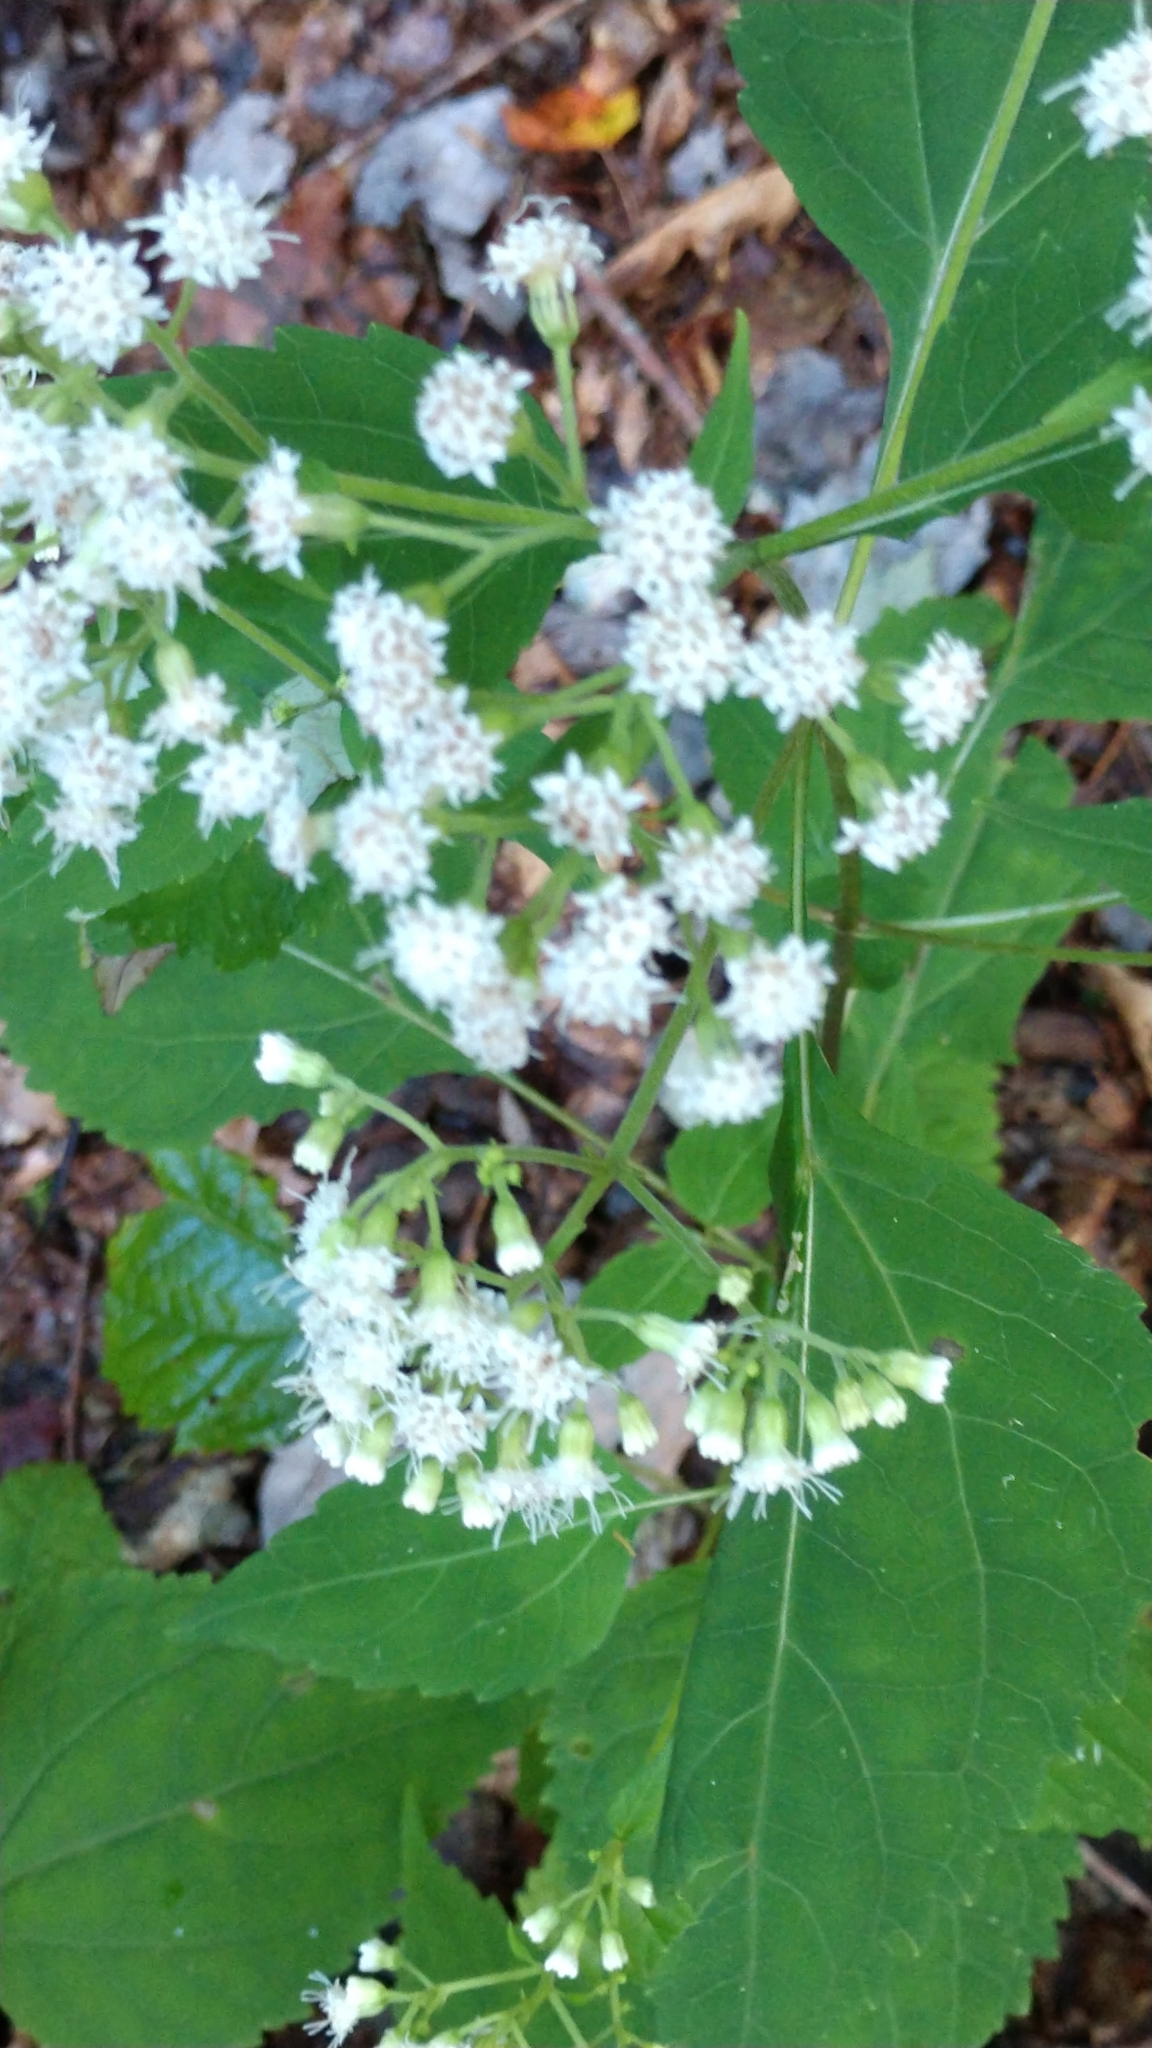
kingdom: Plantae
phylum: Tracheophyta
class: Magnoliopsida
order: Asterales
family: Asteraceae
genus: Ageratina
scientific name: Ageratina altissima
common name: White snakeroot
